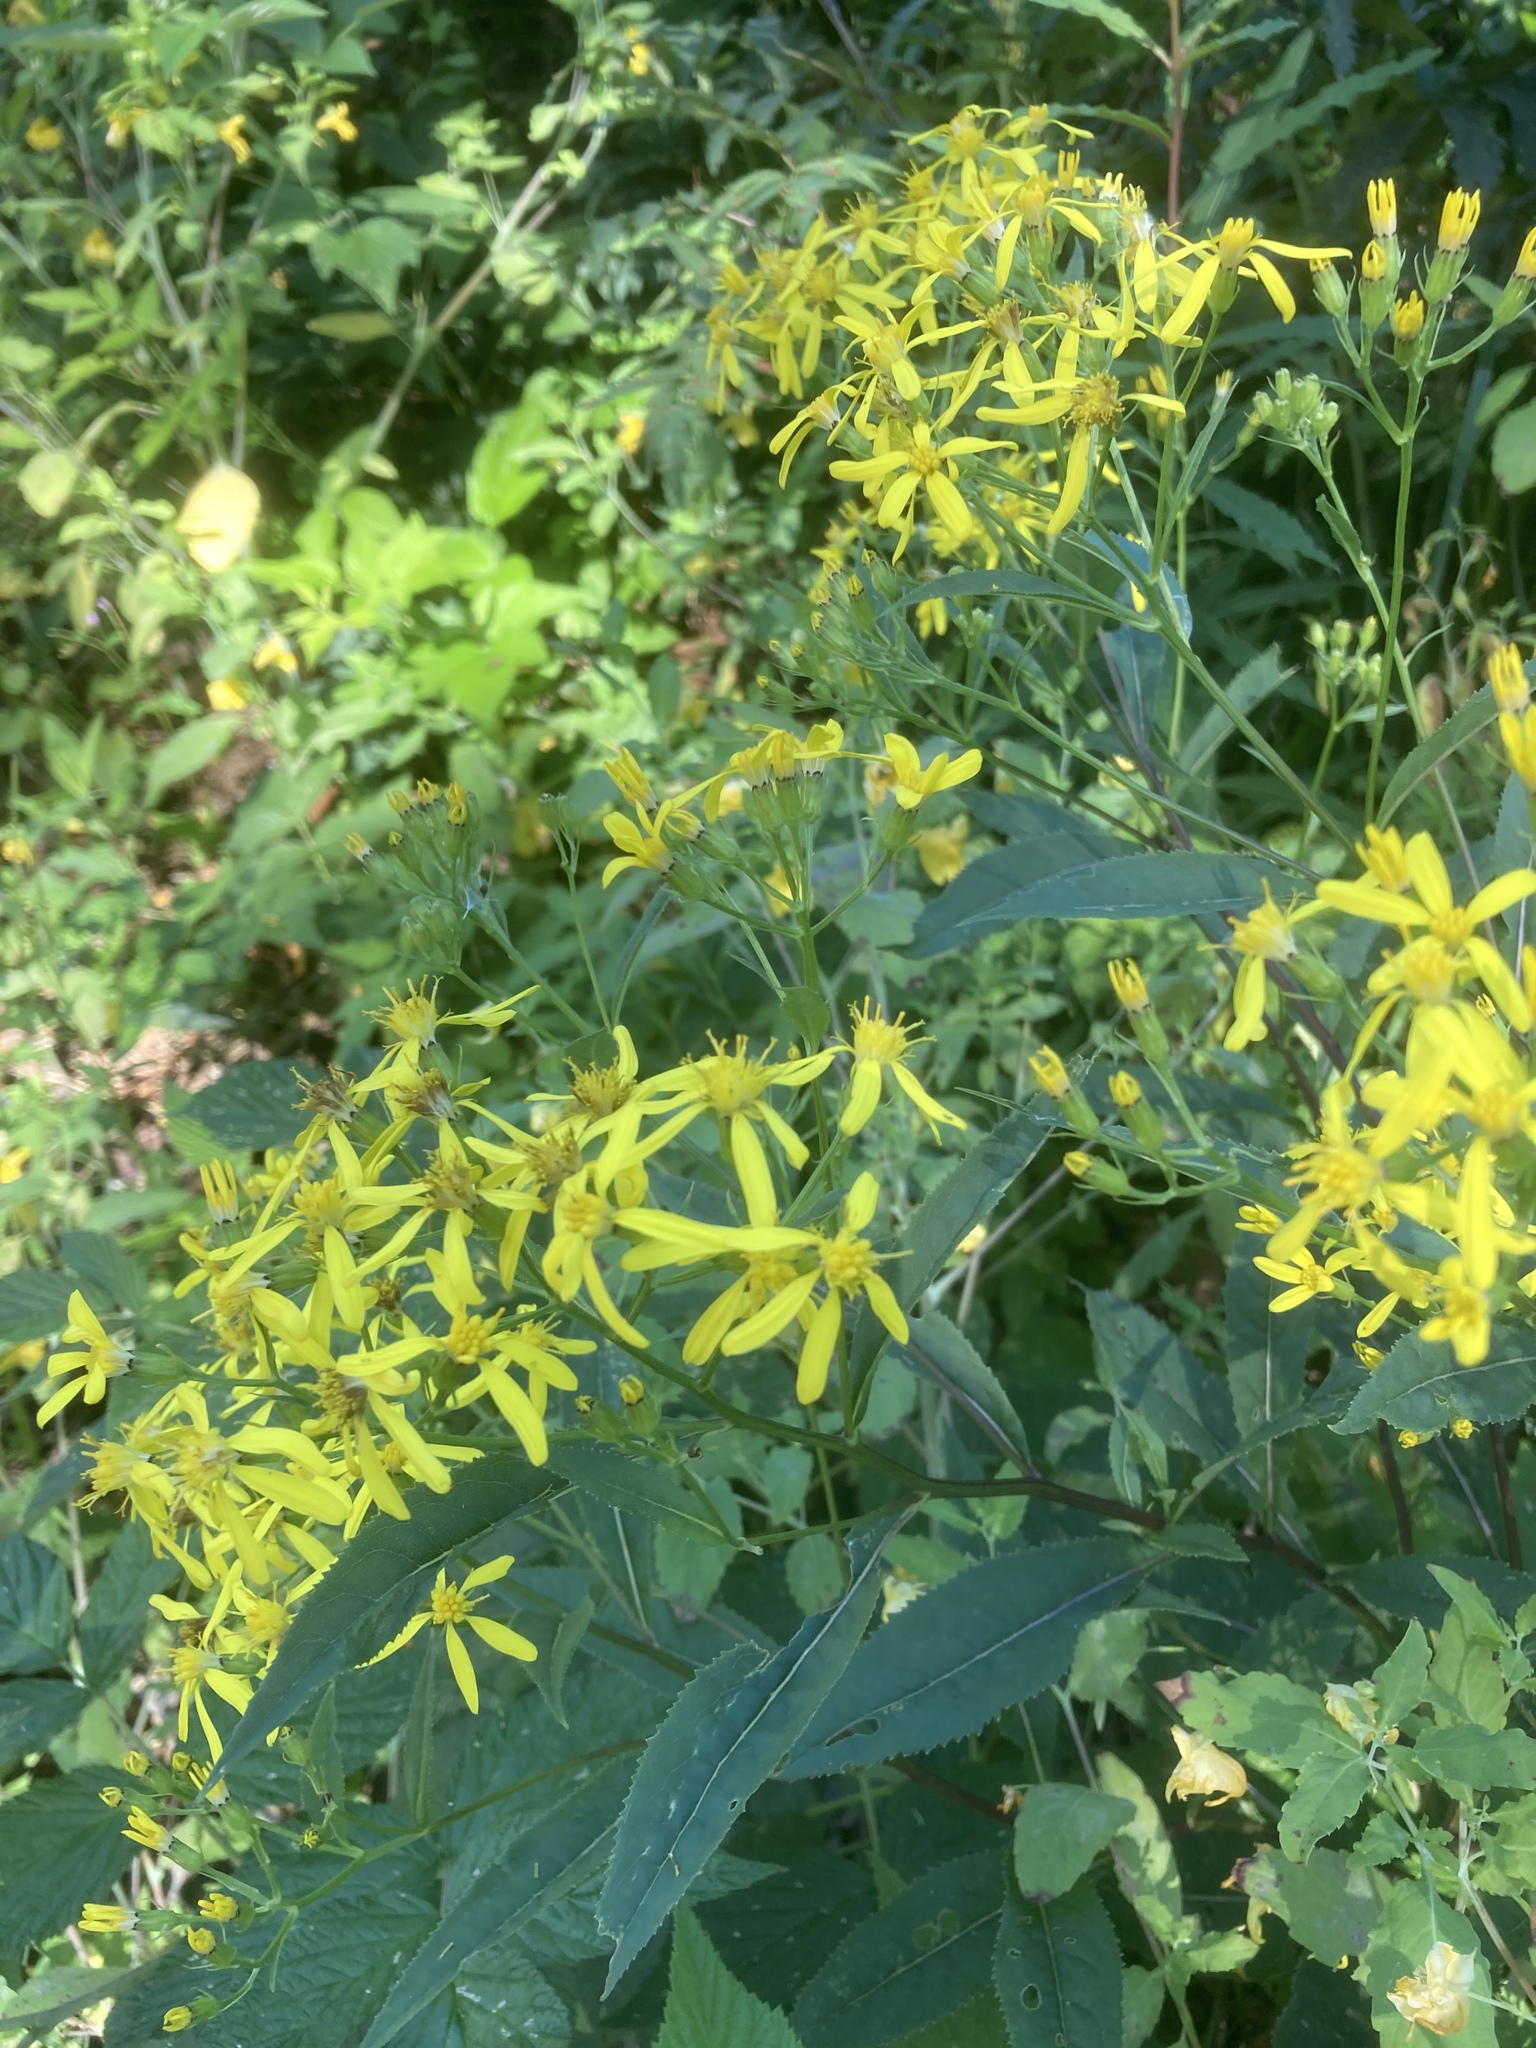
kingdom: Plantae
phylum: Tracheophyta
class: Magnoliopsida
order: Asterales
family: Asteraceae
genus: Senecio
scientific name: Senecio ovatus
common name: Wood ragwort
